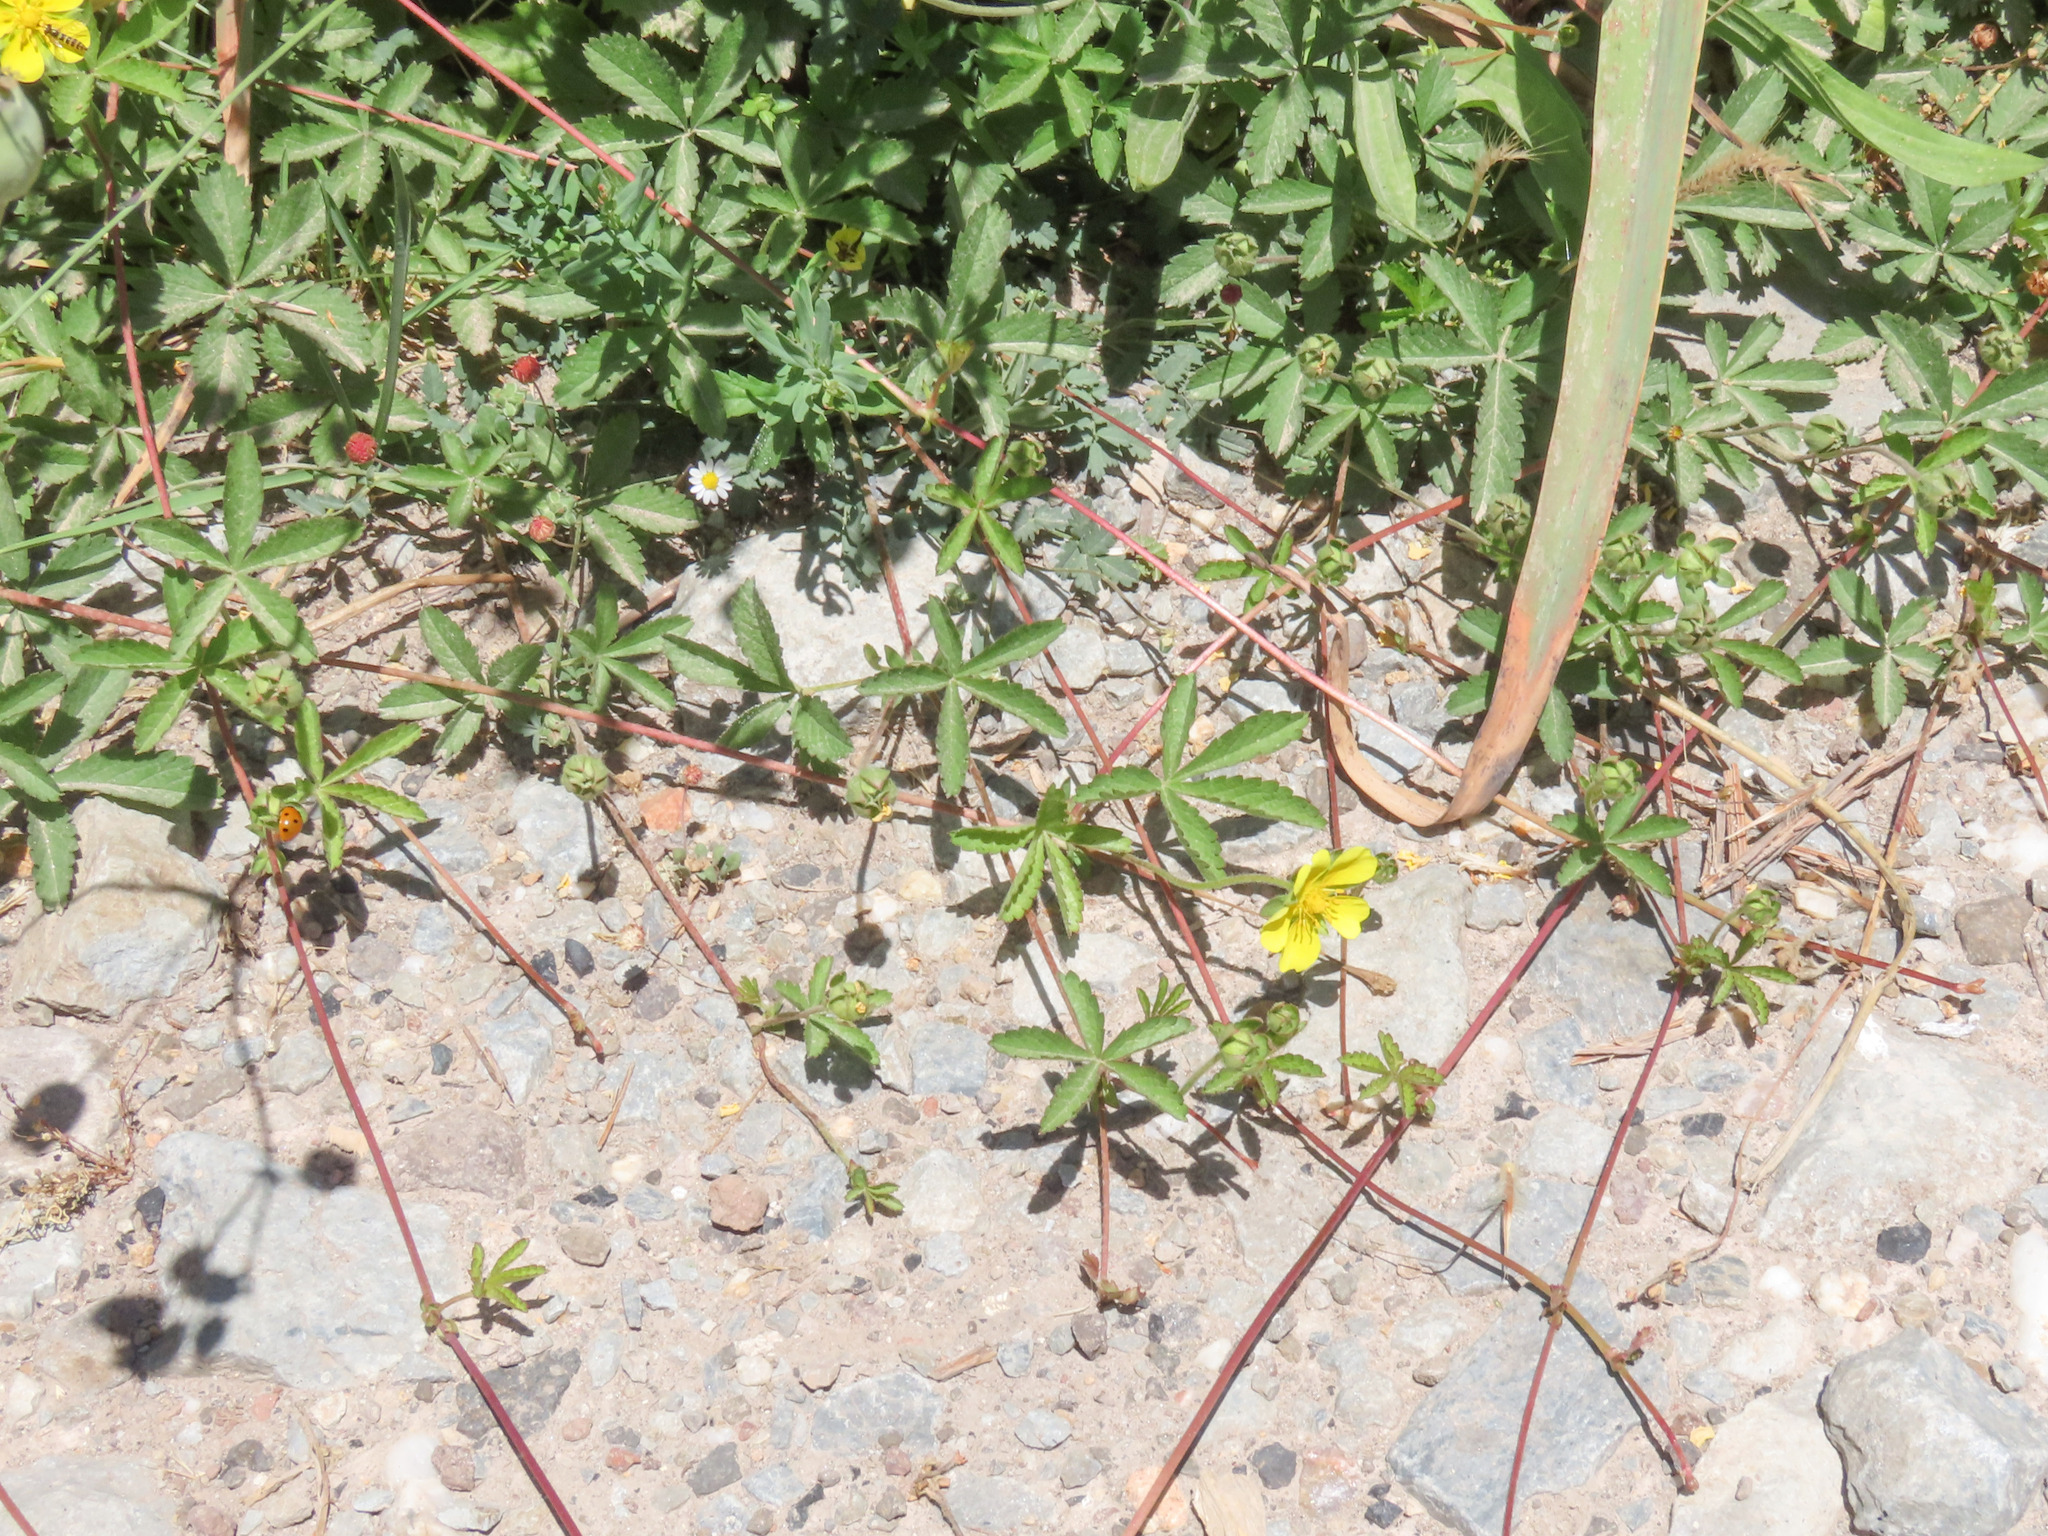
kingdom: Plantae
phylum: Tracheophyta
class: Magnoliopsida
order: Rosales
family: Rosaceae
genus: Potentilla
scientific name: Potentilla reptans
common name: Creeping cinquefoil
